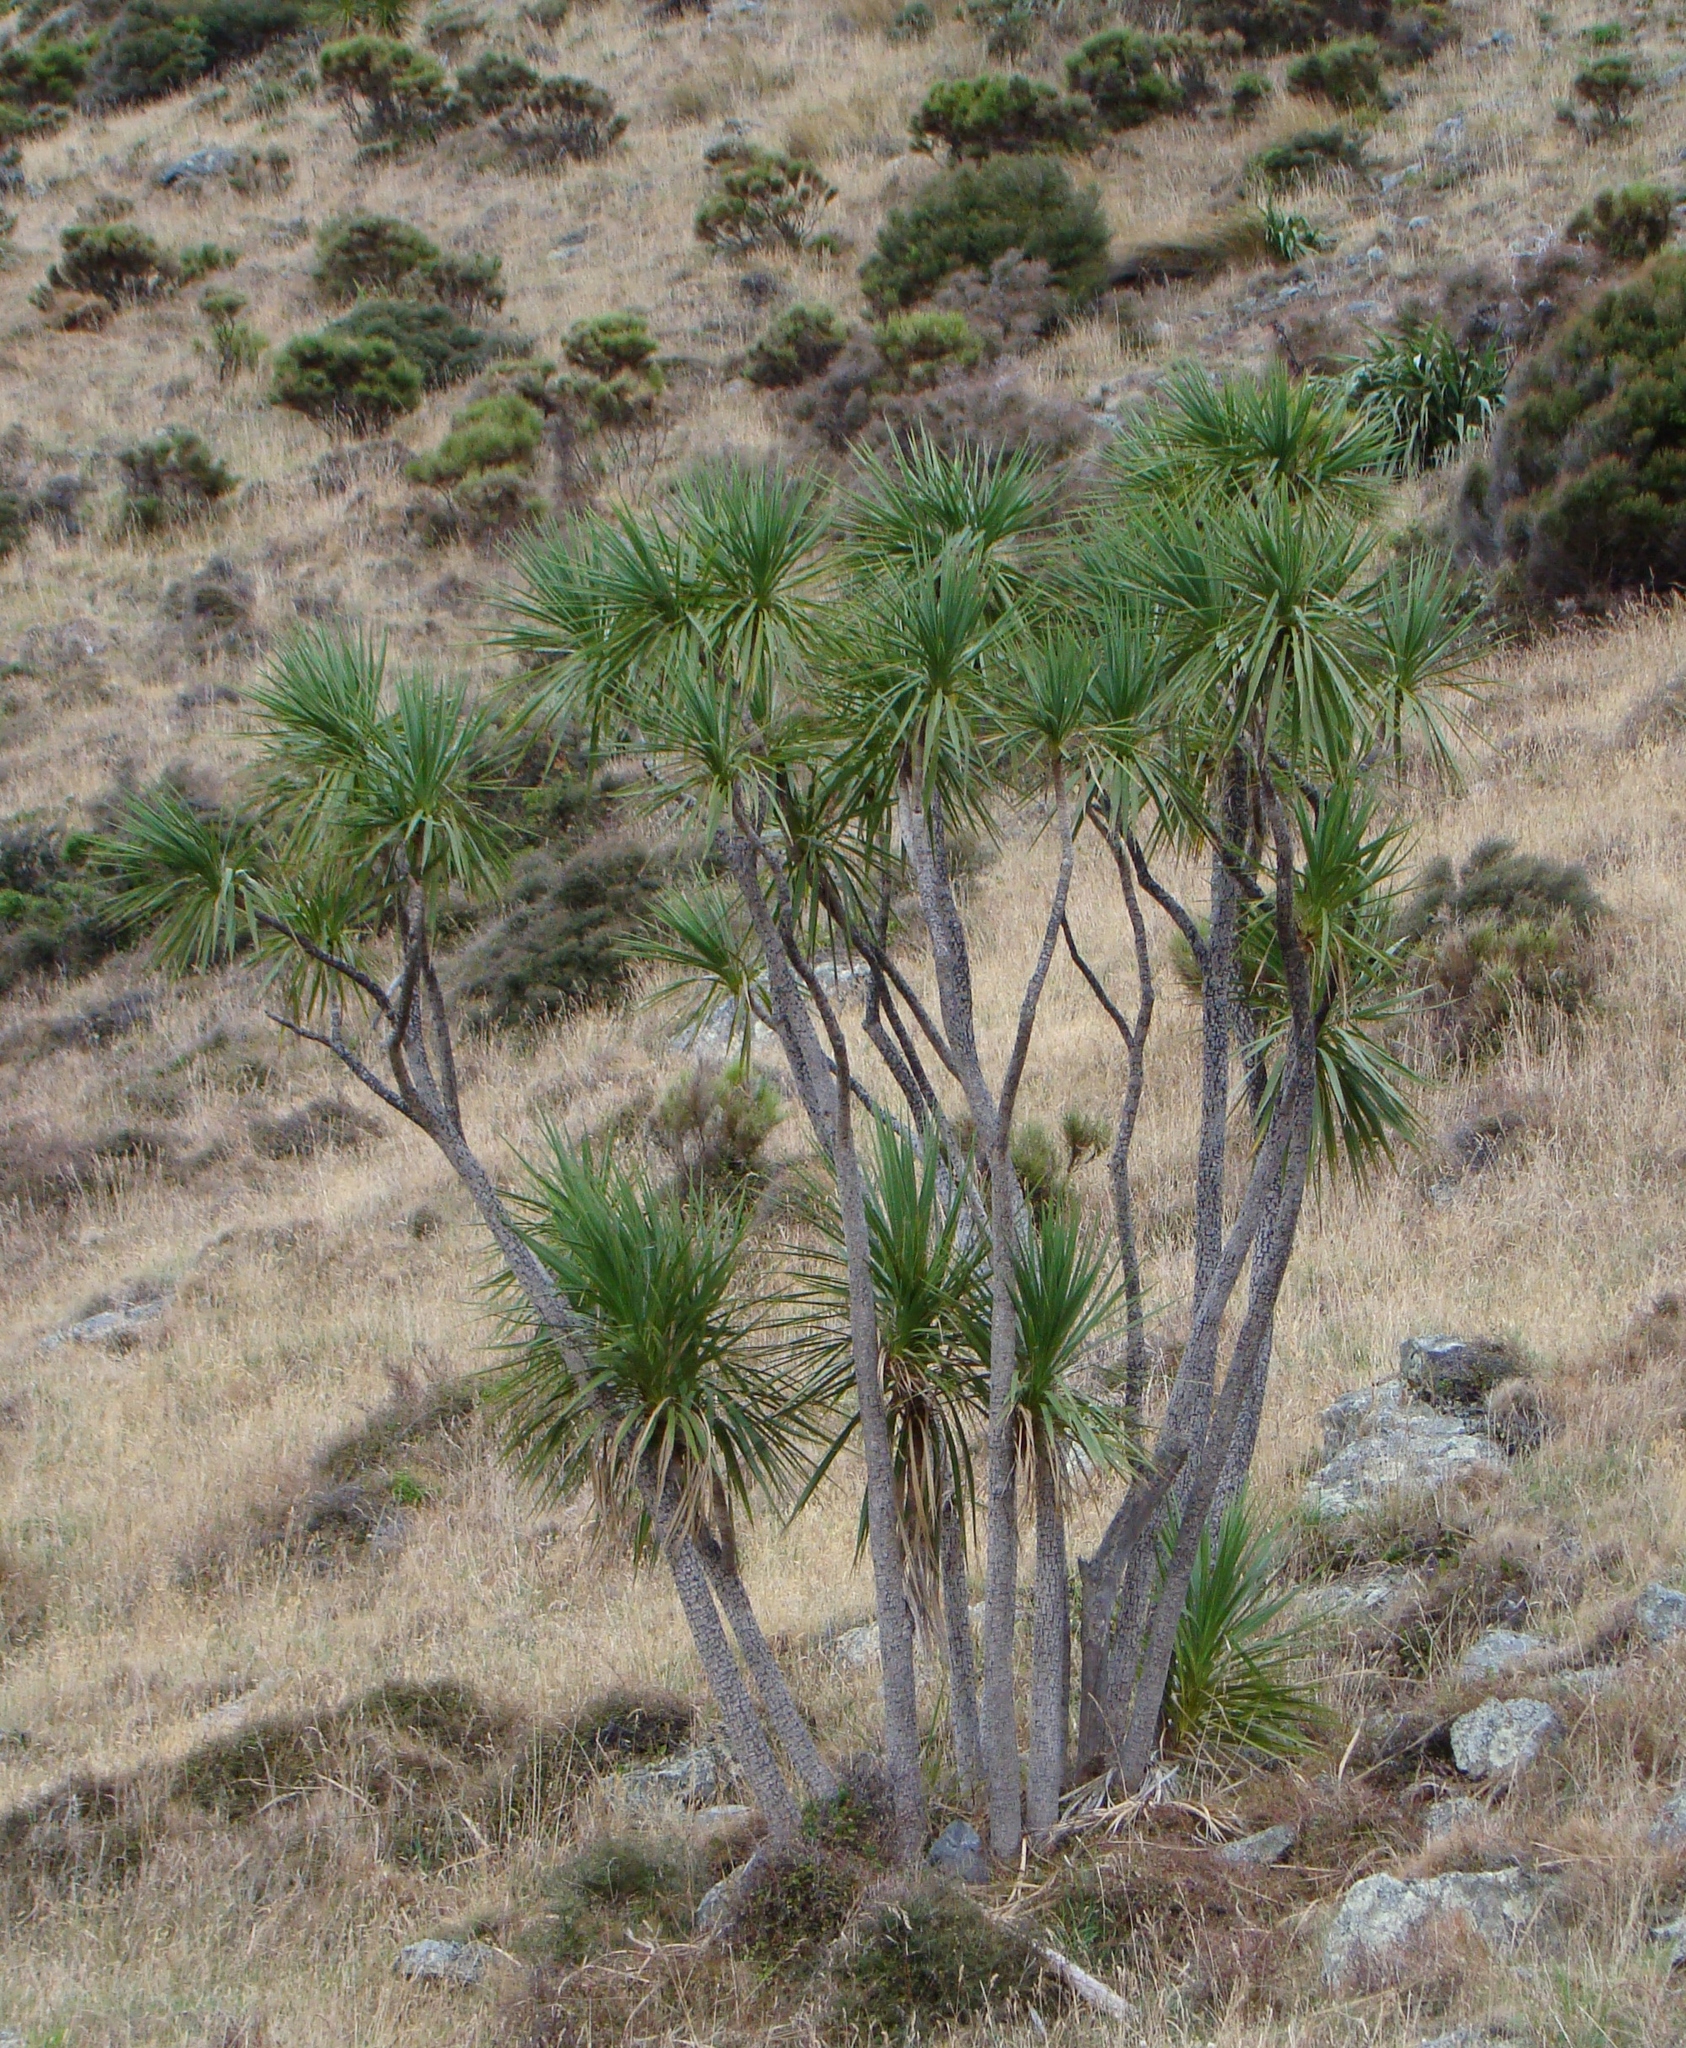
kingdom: Plantae
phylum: Tracheophyta
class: Liliopsida
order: Asparagales
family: Asparagaceae
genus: Cordyline
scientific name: Cordyline australis
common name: Cabbage-palm
